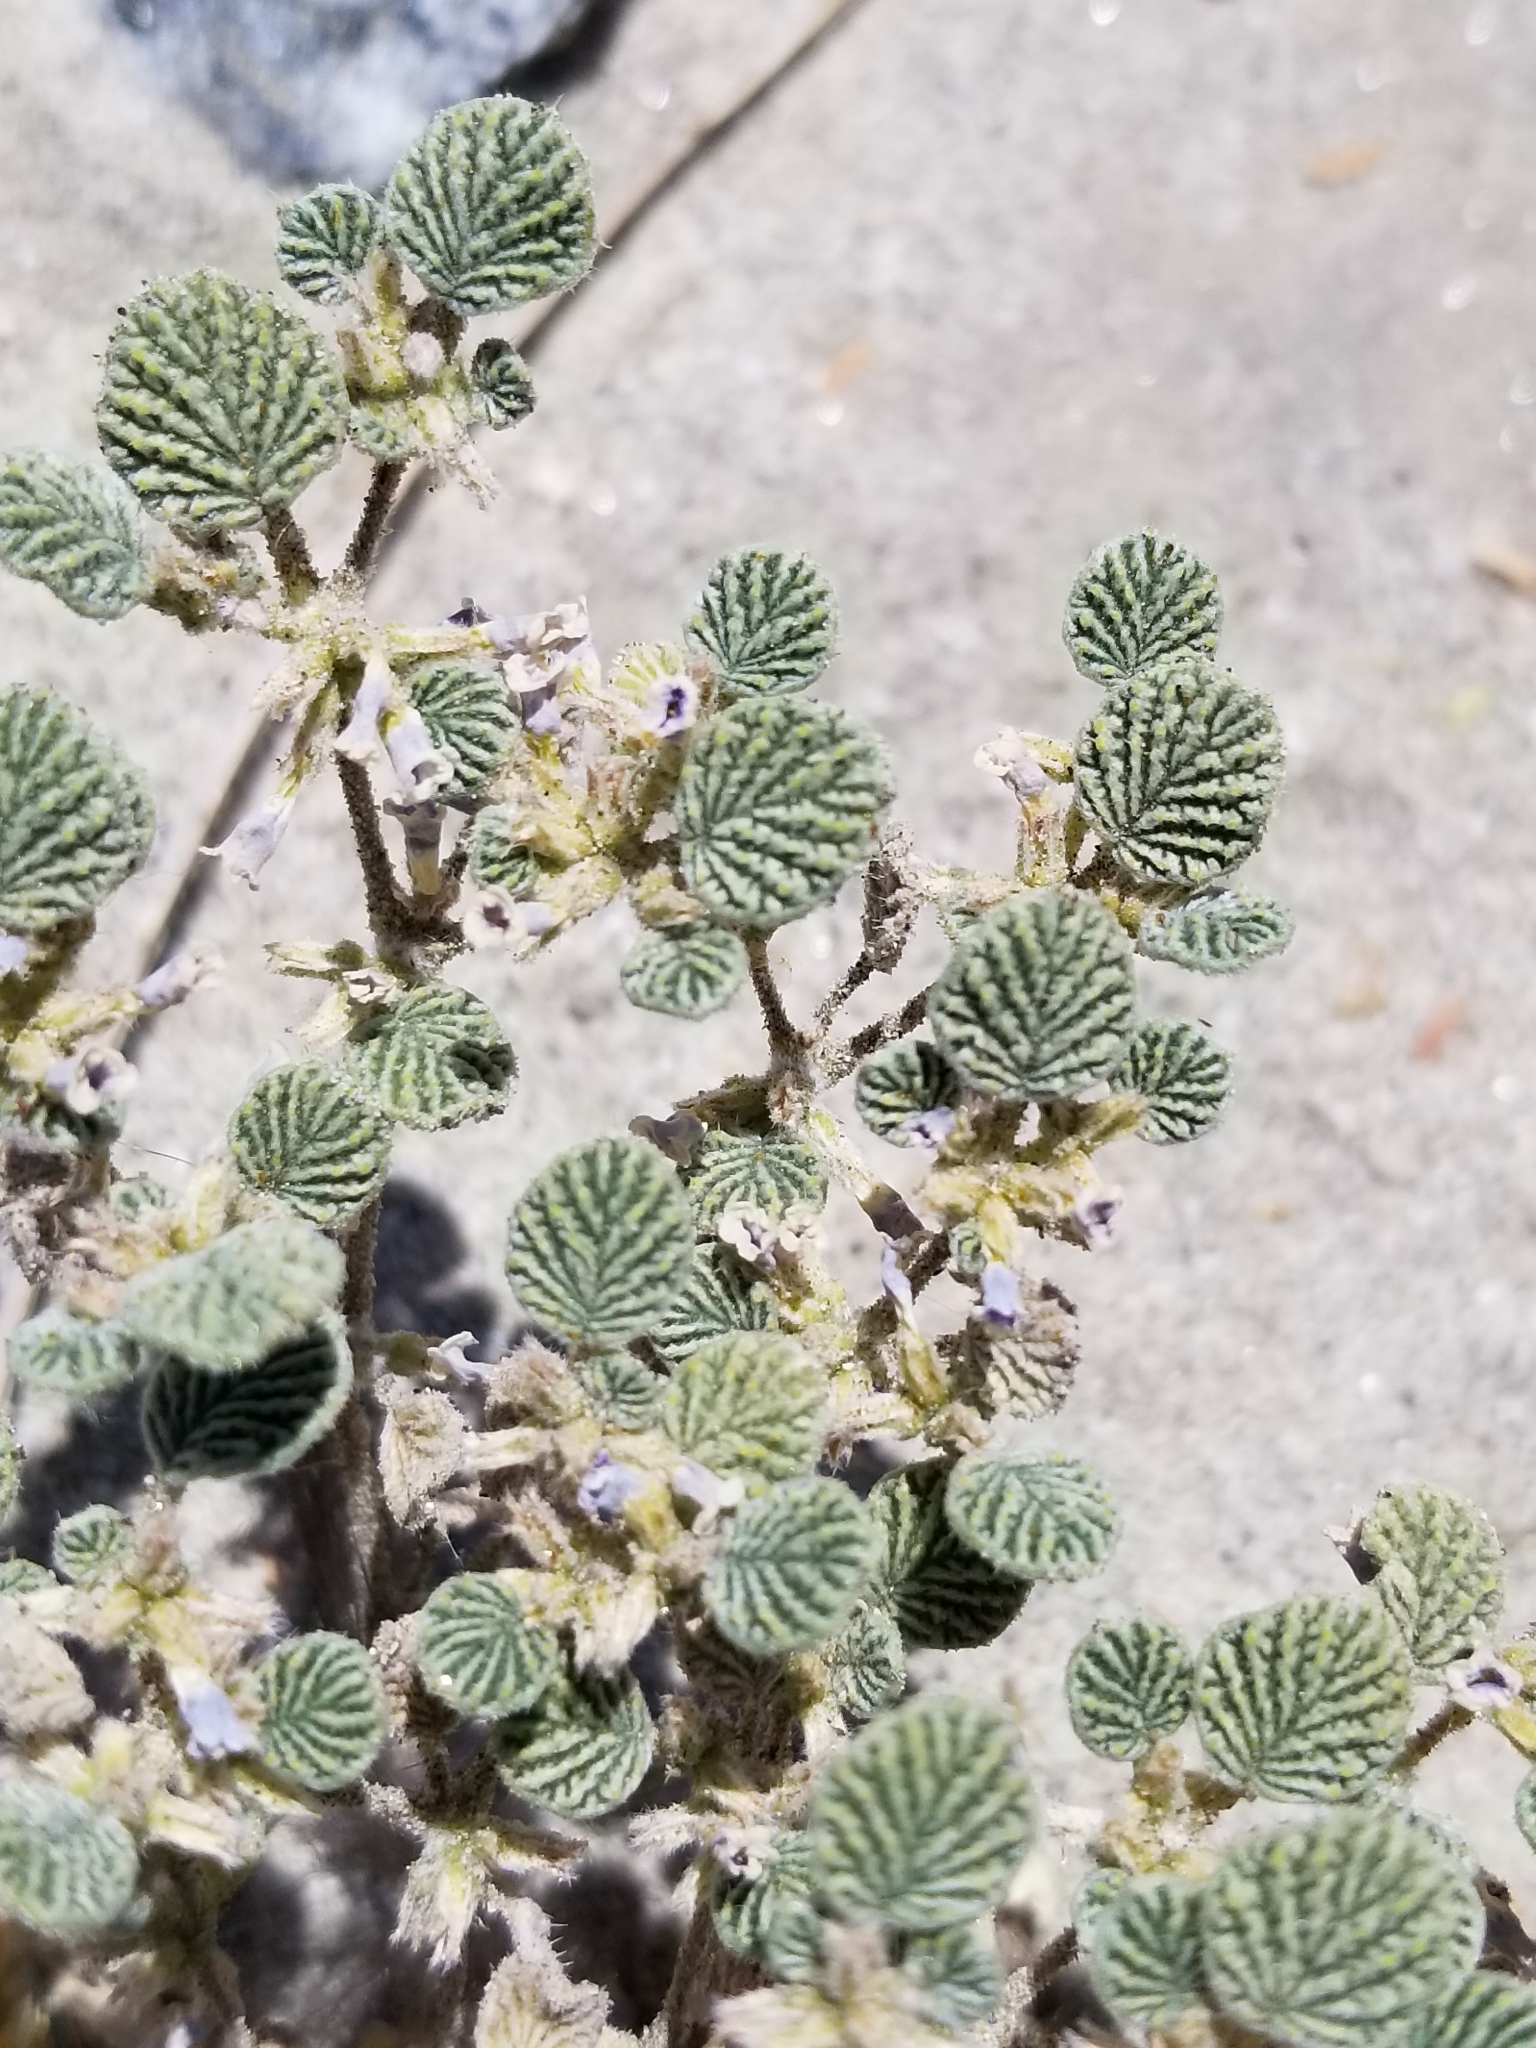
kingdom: Plantae
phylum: Tracheophyta
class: Magnoliopsida
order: Boraginales
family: Ehretiaceae
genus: Tiquilia
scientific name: Tiquilia plicata
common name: Fan-leaf tiquilia
